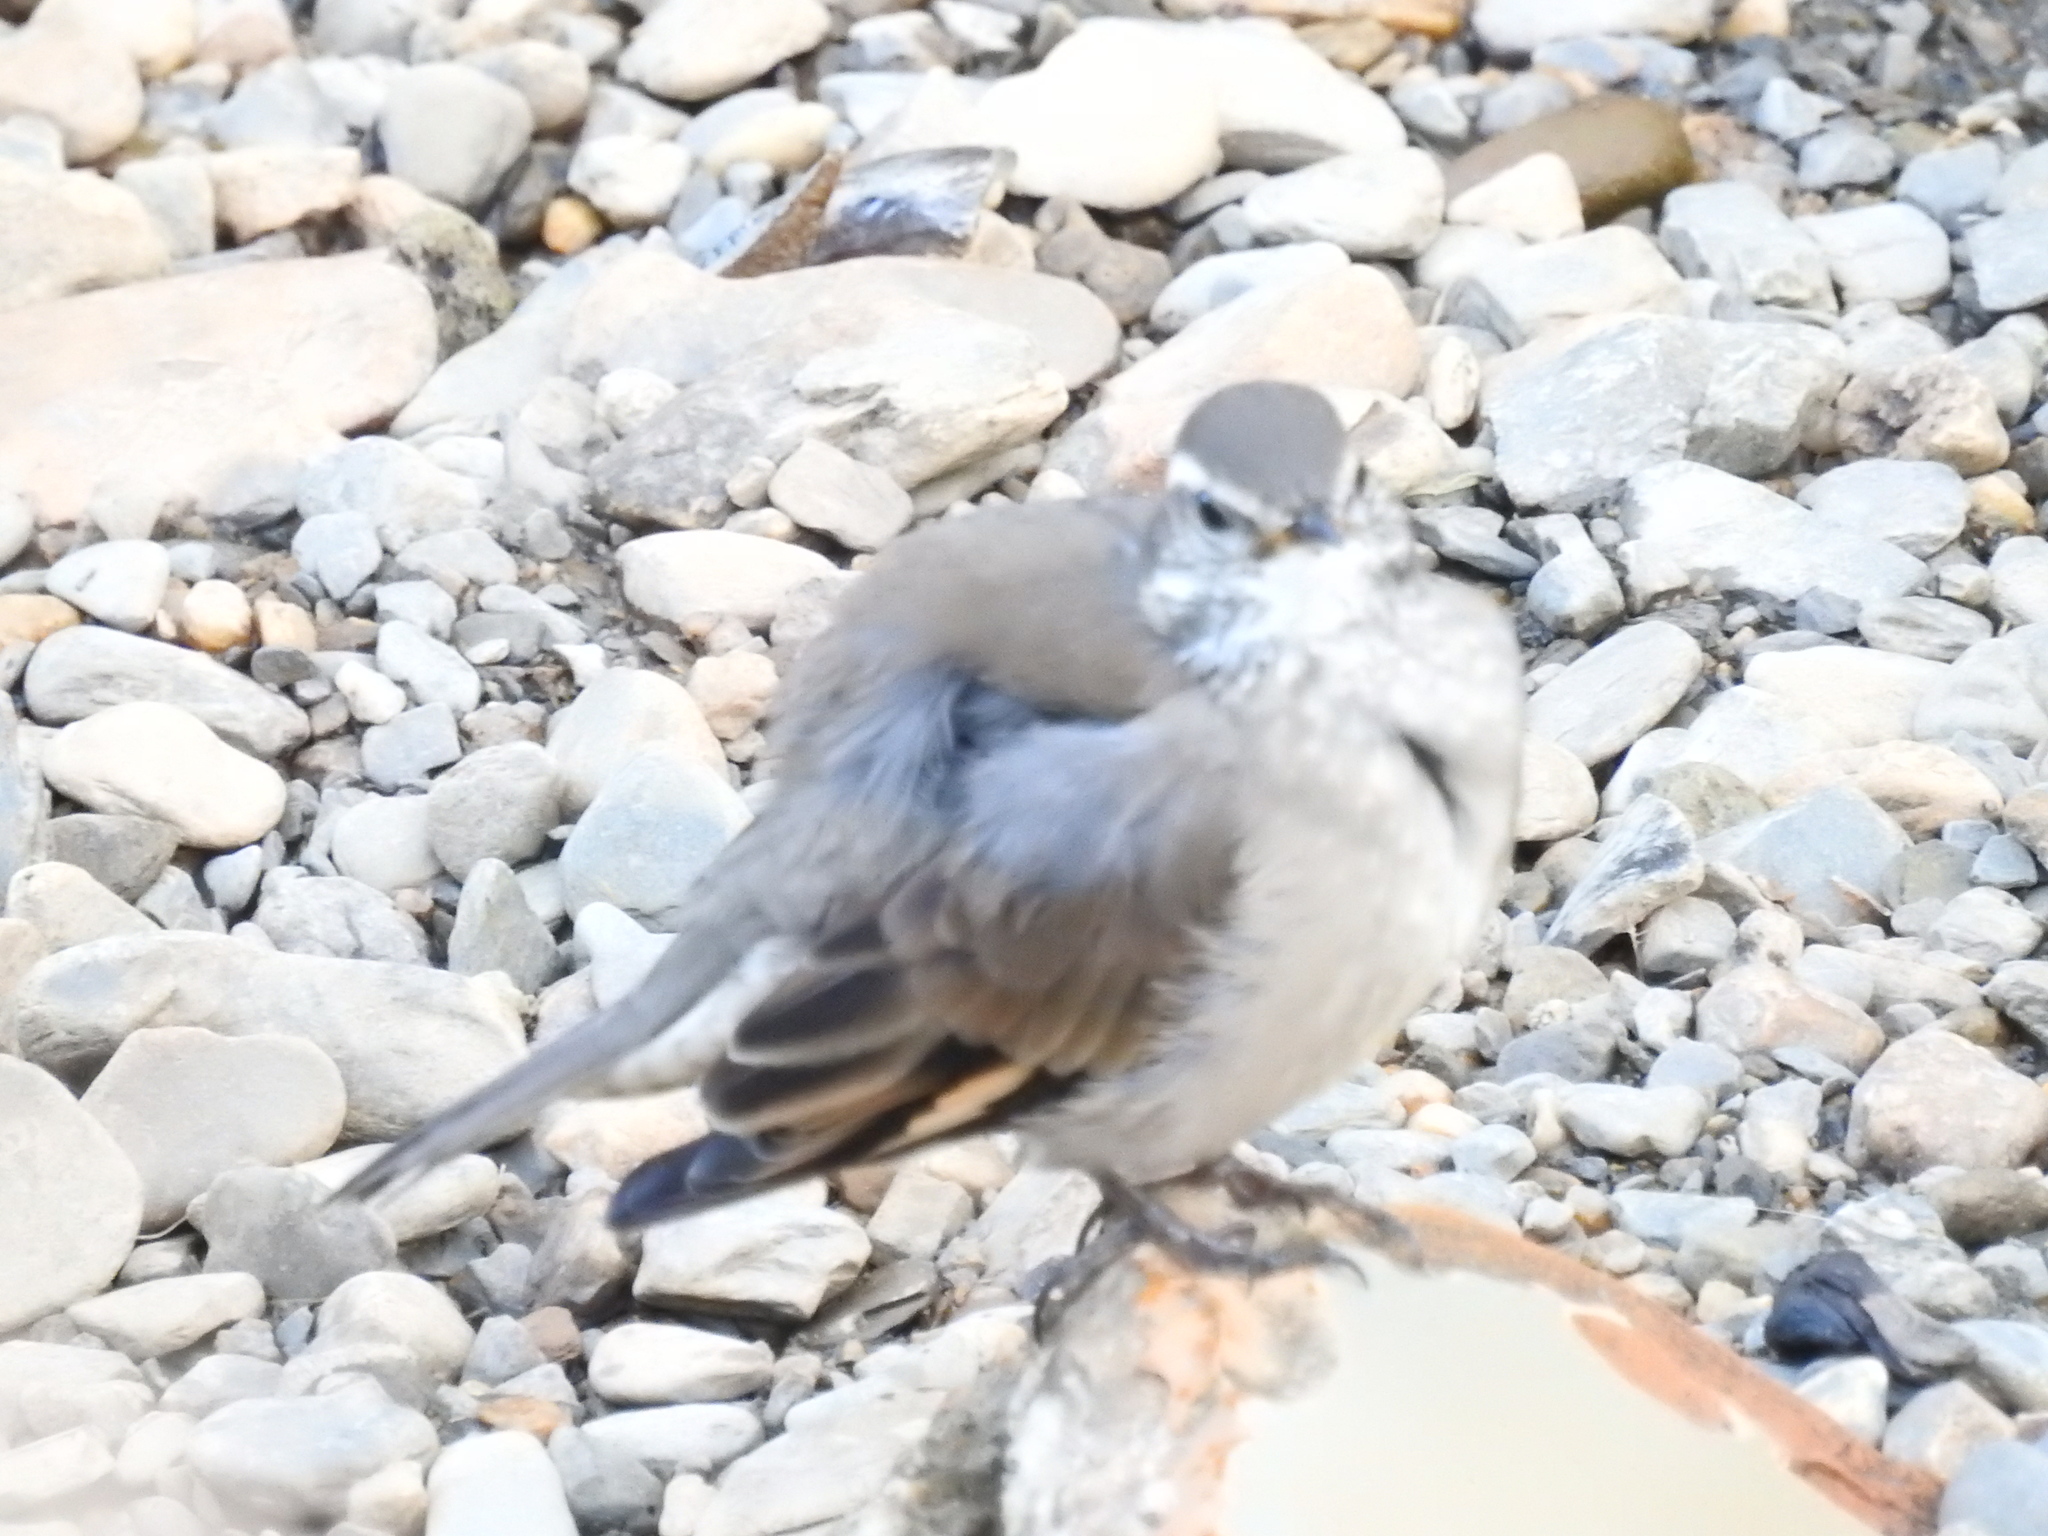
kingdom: Animalia
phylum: Chordata
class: Aves
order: Passeriformes
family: Furnariidae
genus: Cinclodes
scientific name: Cinclodes fuscus
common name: Buff-winged cinclodes
